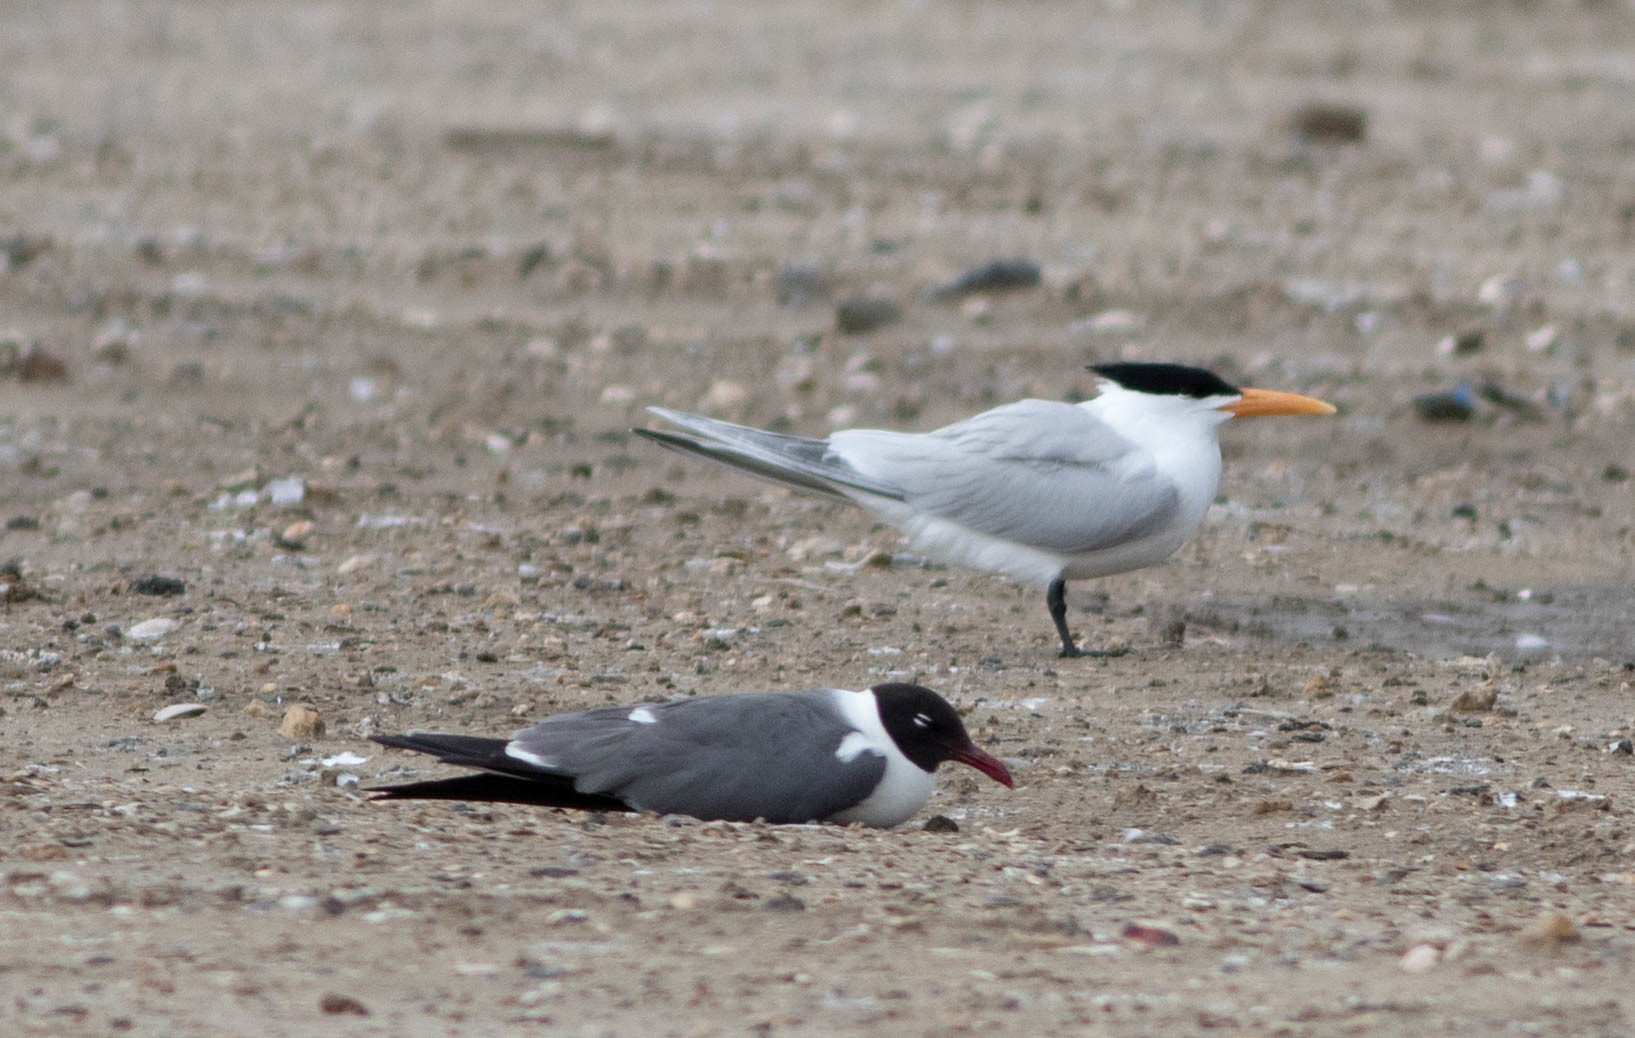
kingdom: Animalia
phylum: Chordata
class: Aves
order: Charadriiformes
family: Laridae
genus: Leucophaeus
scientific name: Leucophaeus atricilla
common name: Laughing gull
